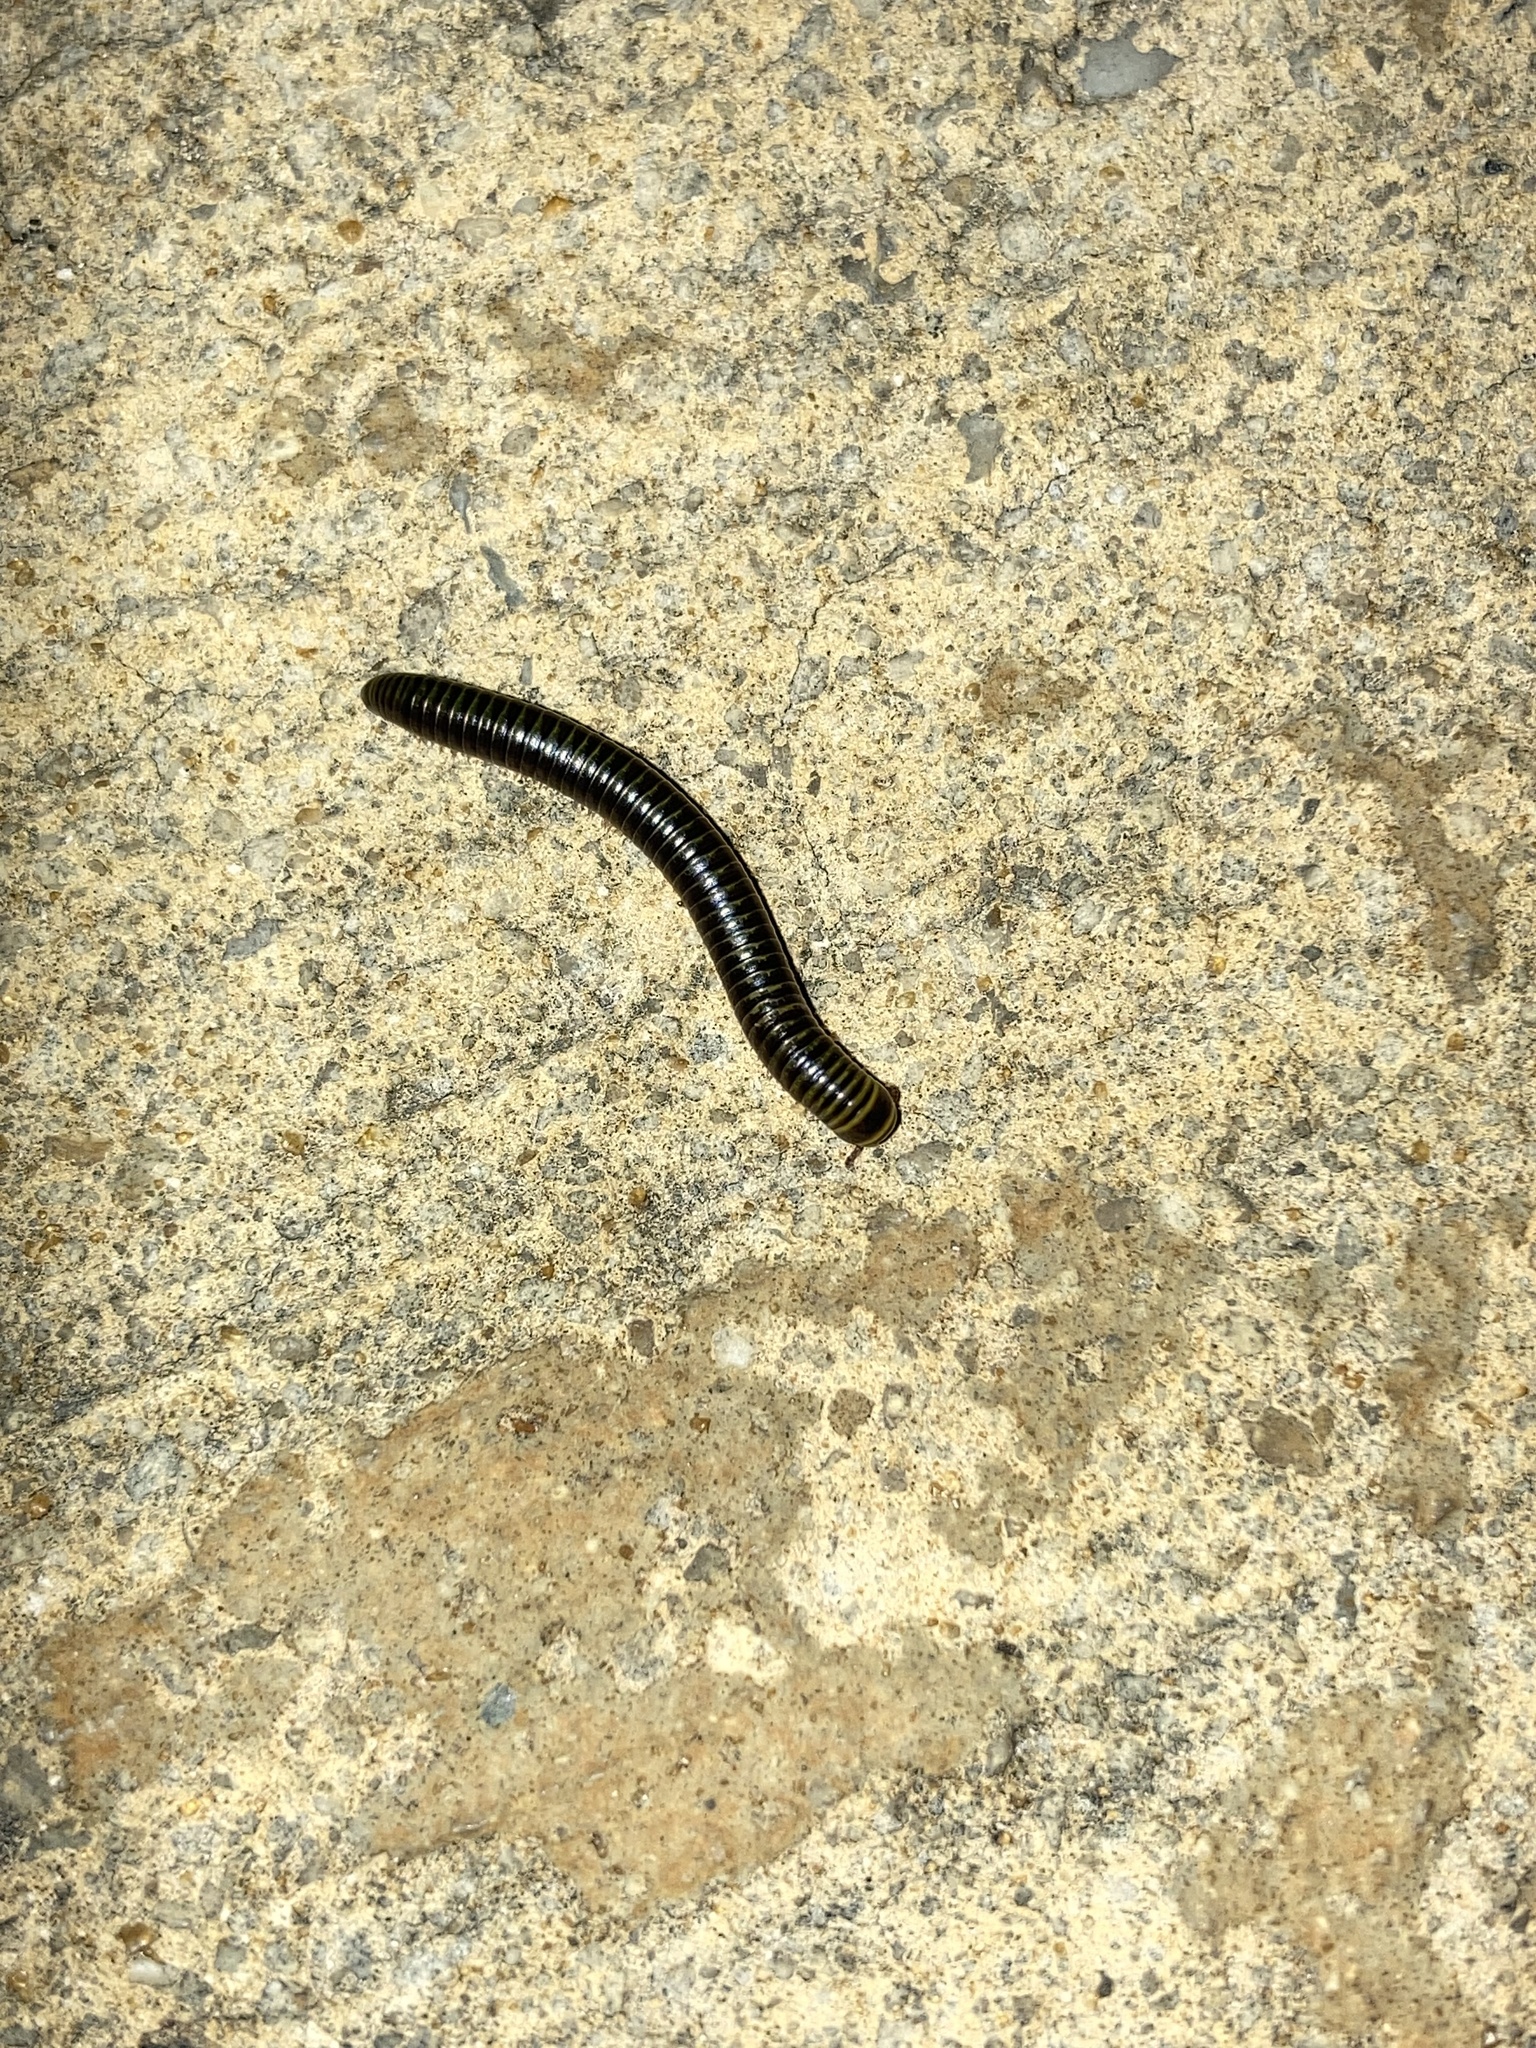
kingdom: Animalia
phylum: Arthropoda
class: Diplopoda
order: Spirobolida
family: Rhinocricidae
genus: Anadenobolus
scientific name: Anadenobolus monilicornis
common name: Caribbean millipede
